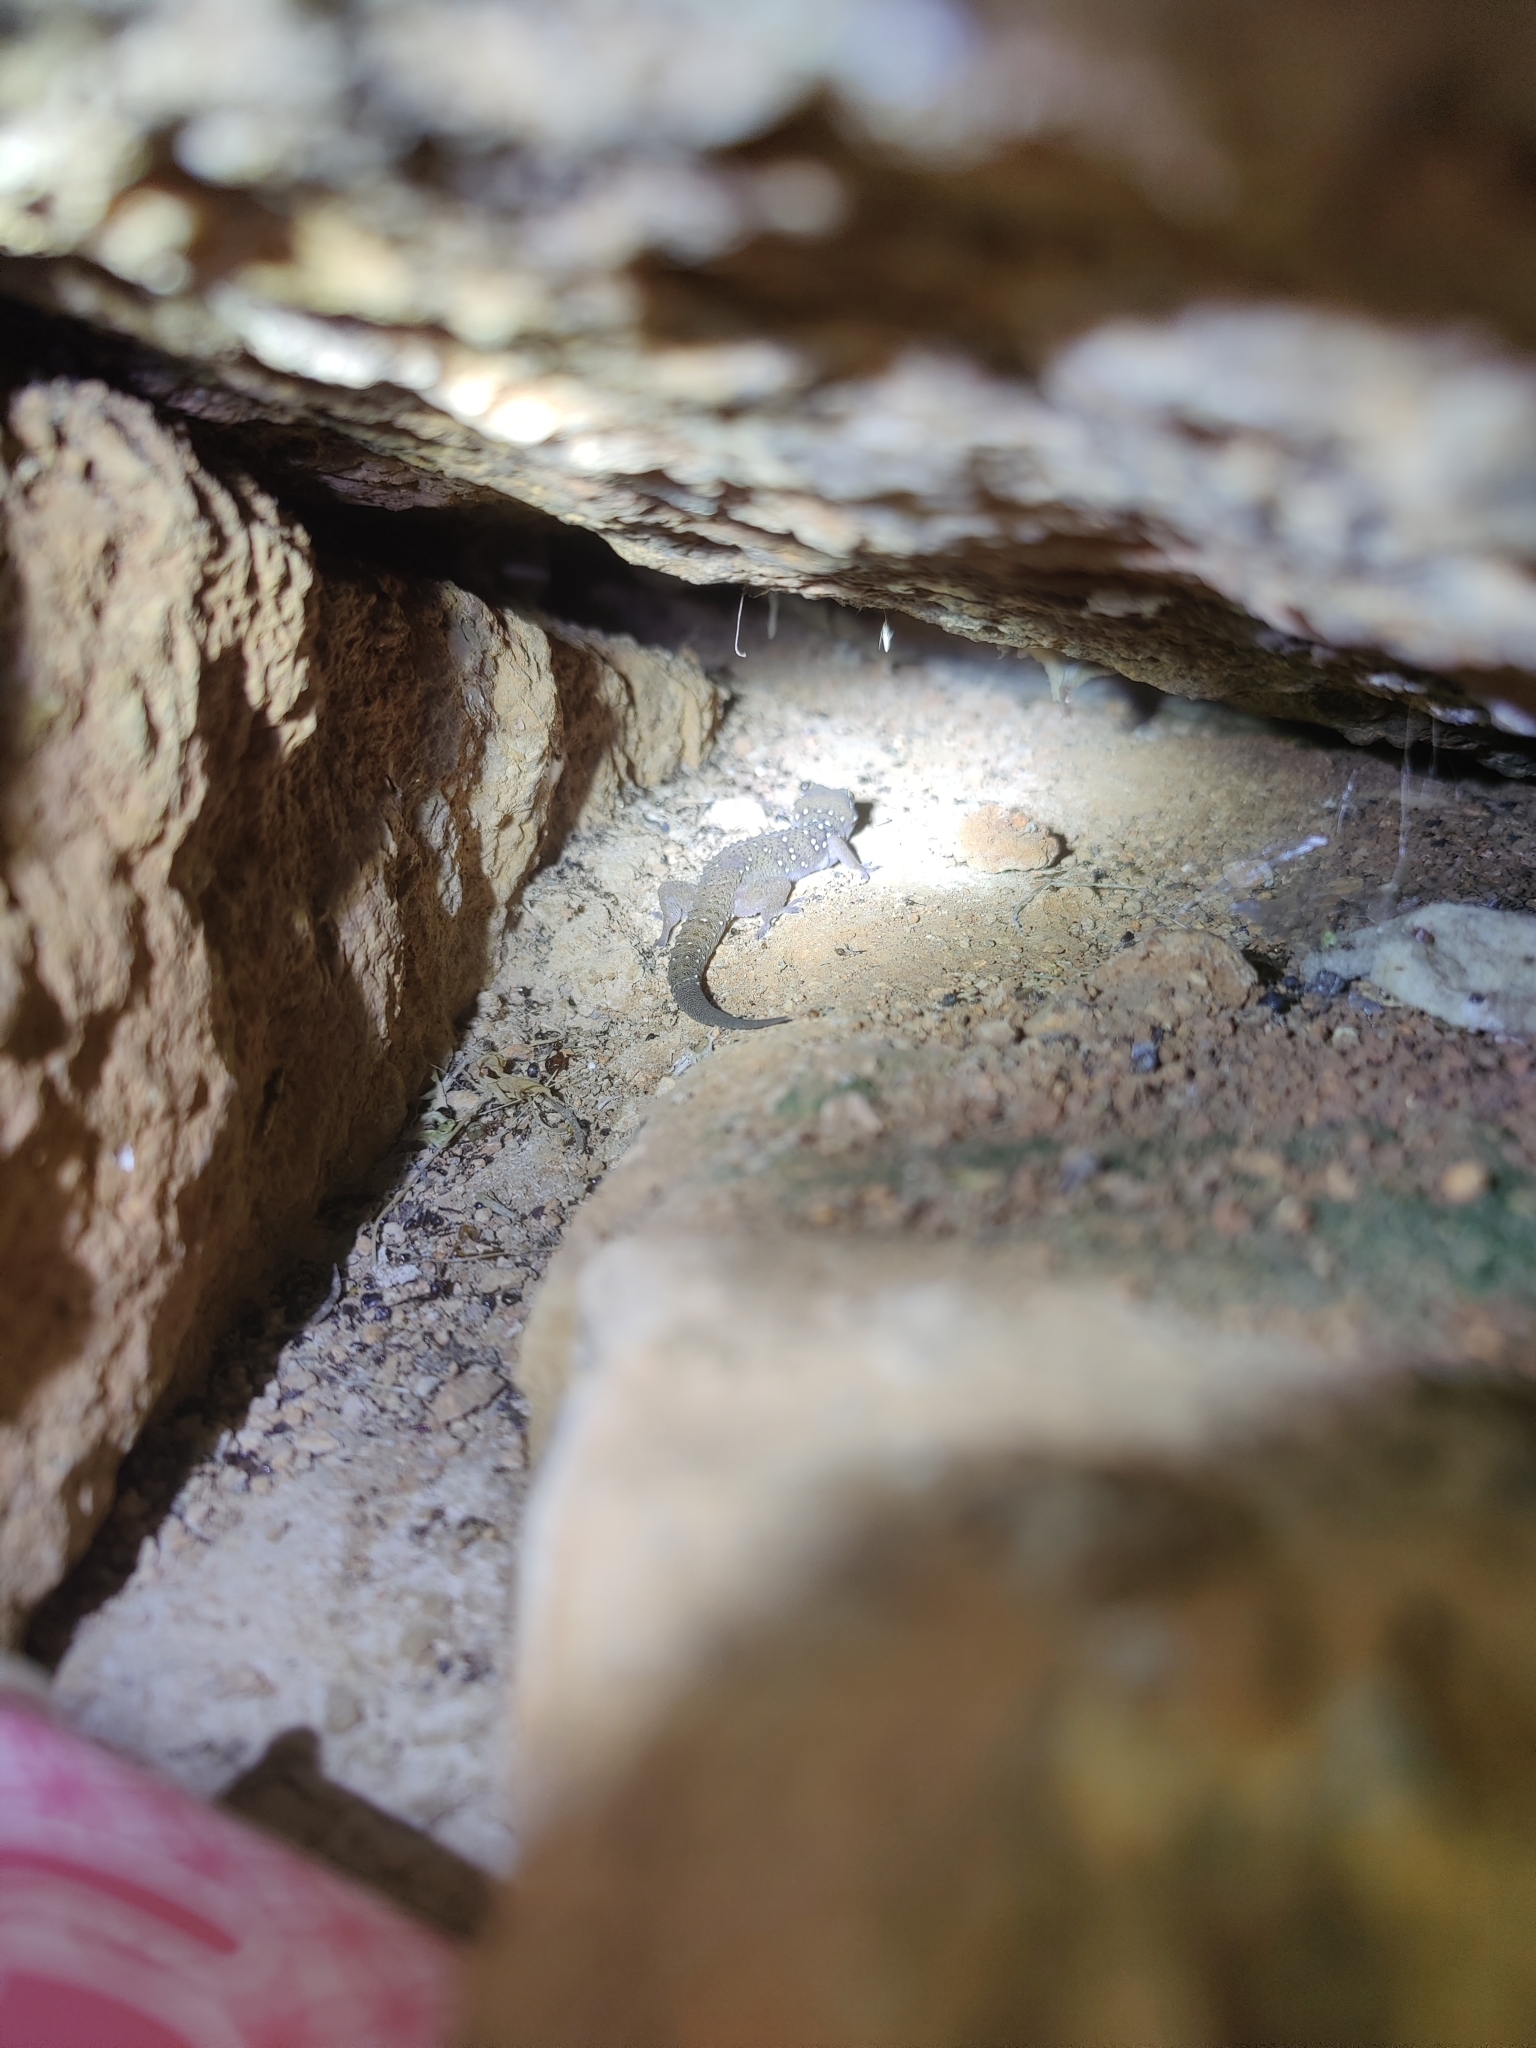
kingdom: Animalia
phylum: Chordata
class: Squamata
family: Gekkonidae
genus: Hemidactylus
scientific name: Hemidactylus whitakeri
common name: Whitaker’s termite hill gecko
